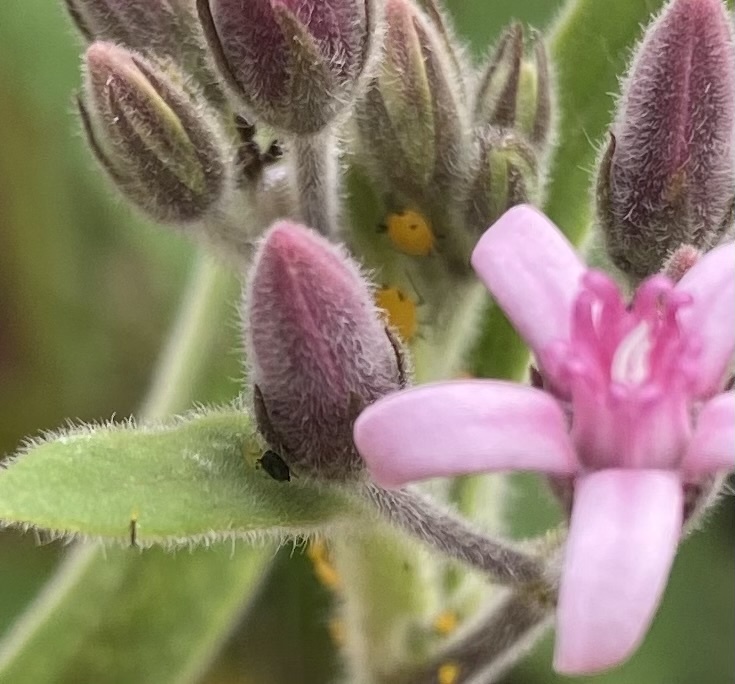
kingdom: Animalia
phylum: Arthropoda
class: Insecta
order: Hemiptera
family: Aphididae
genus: Aphis
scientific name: Aphis nerii
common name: Oleander aphid
